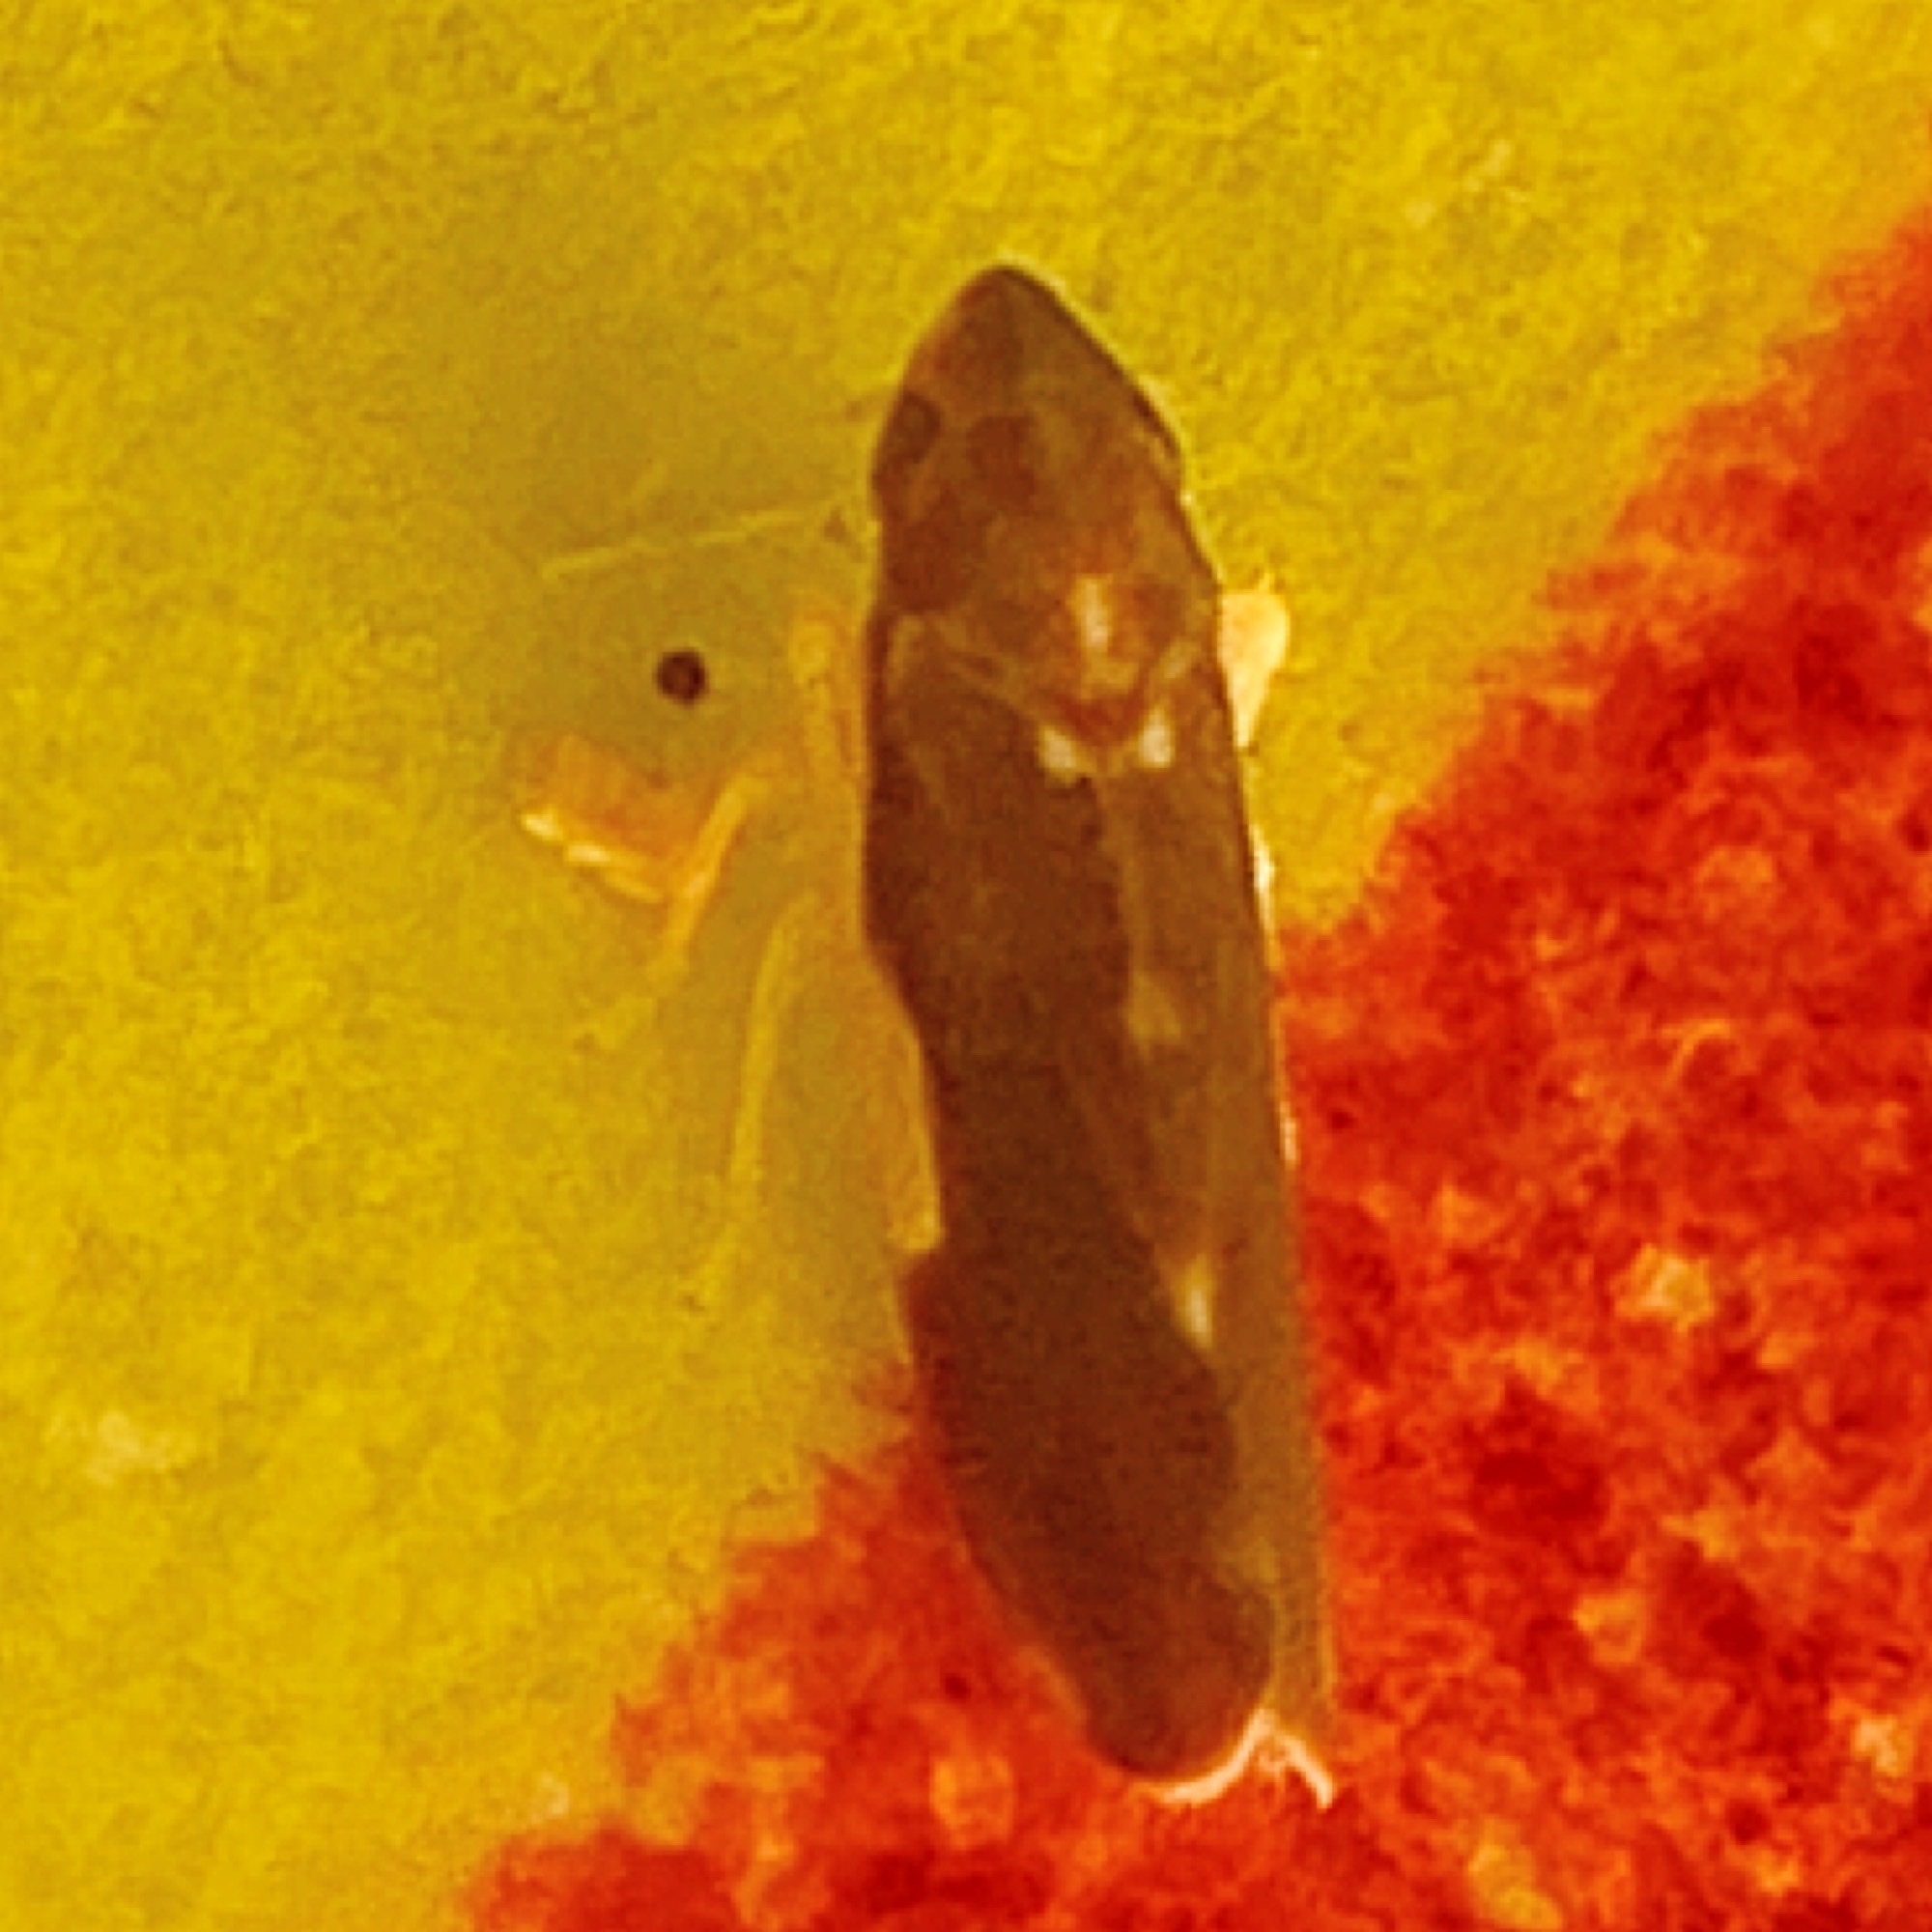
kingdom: Animalia
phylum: Arthropoda
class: Insecta
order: Hemiptera
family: Cicadellidae
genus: Erythroneura
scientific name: Erythroneura infuscata
